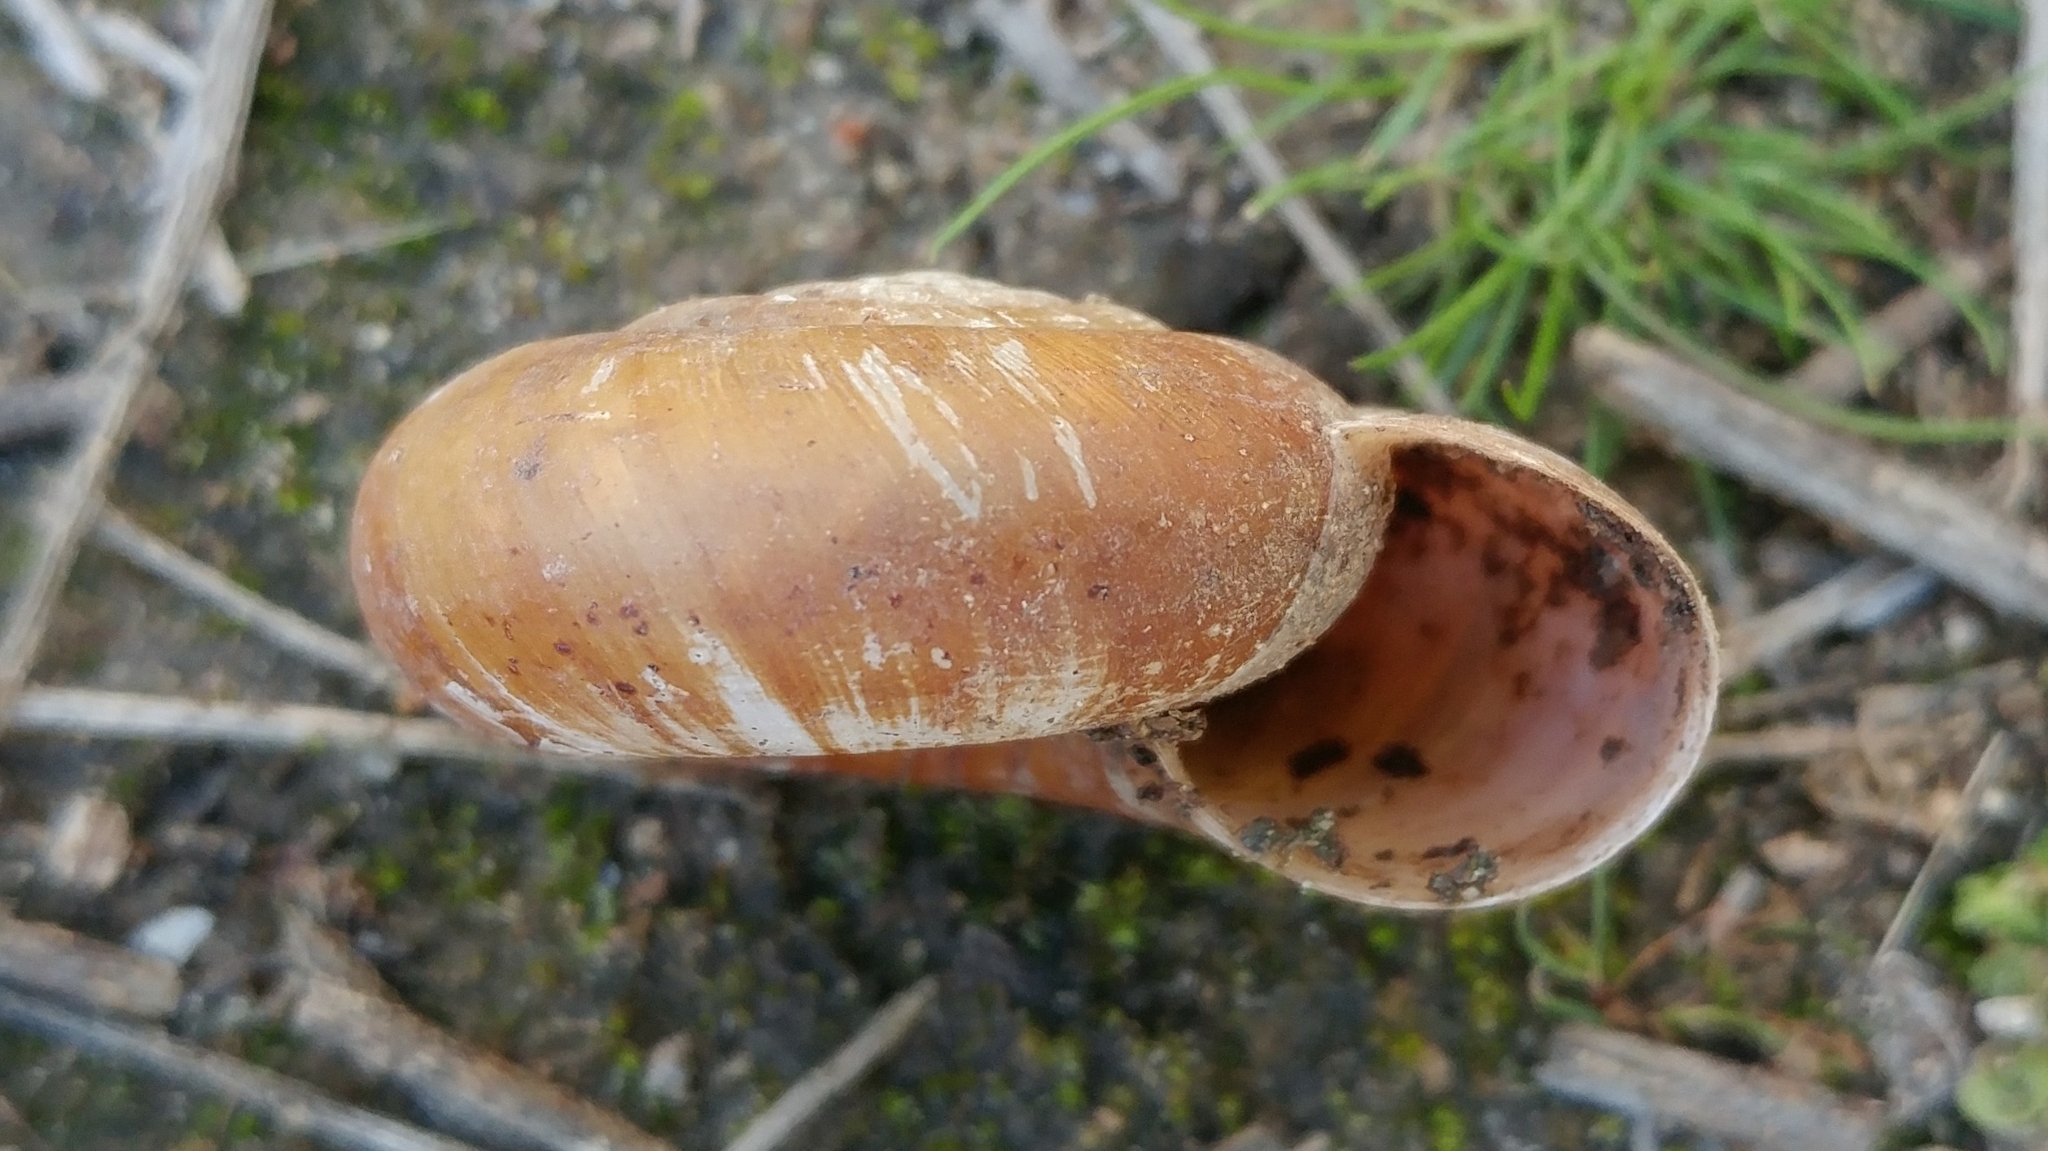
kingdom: Animalia
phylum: Mollusca
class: Gastropoda
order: Stylommatophora
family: Megomphicidae
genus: Glyptostoma
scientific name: Glyptostoma newberryanum
